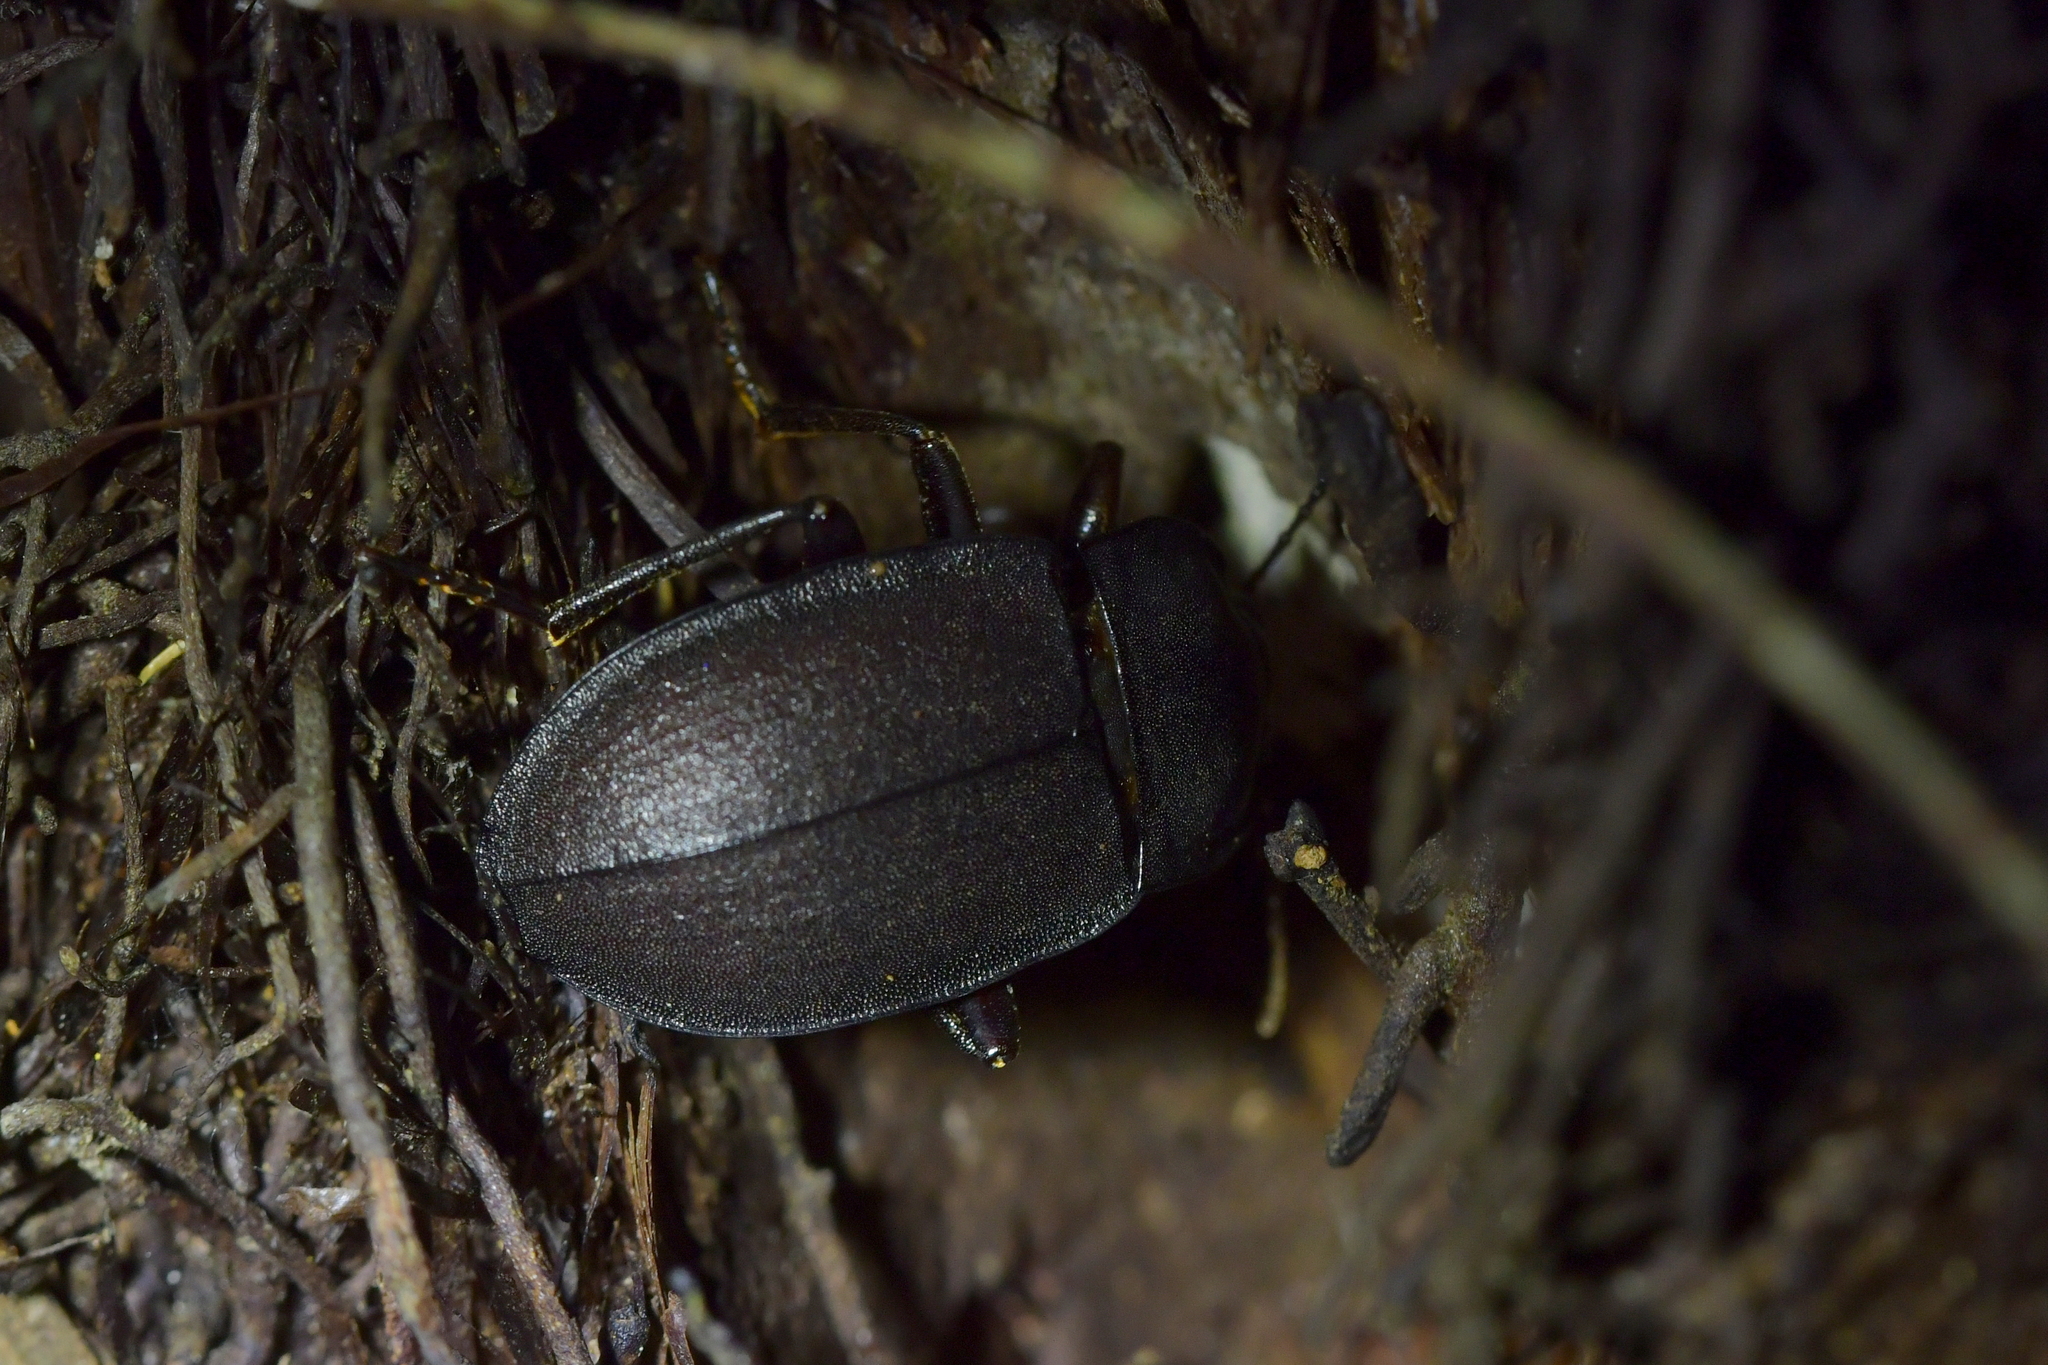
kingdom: Animalia
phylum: Arthropoda
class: Insecta
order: Coleoptera
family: Tenebrionidae
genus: Mimopeus
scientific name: Mimopeus
